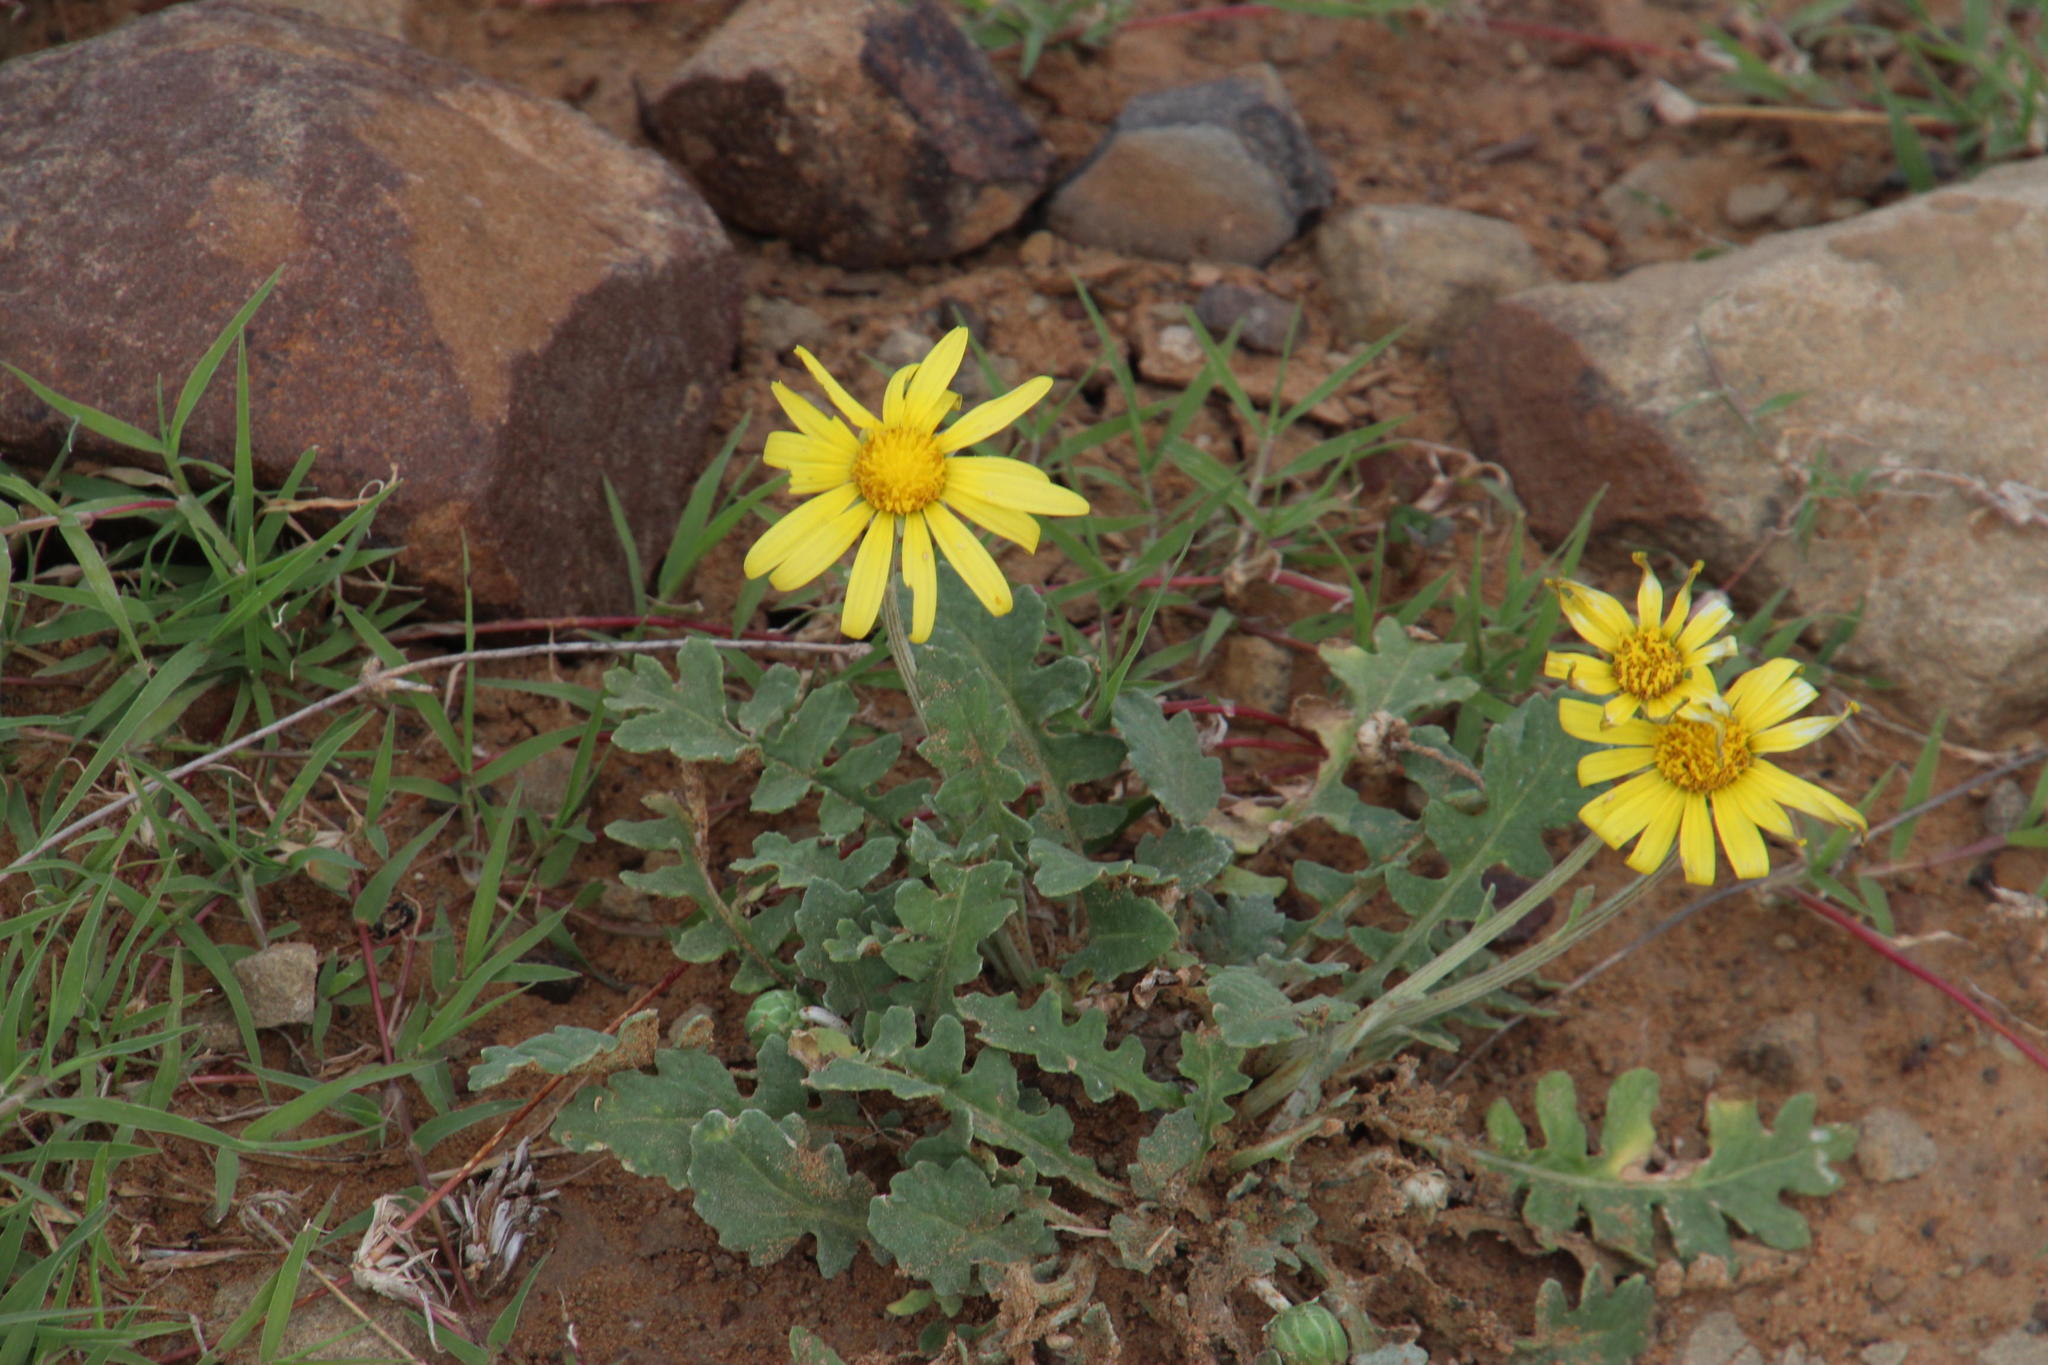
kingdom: Plantae
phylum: Tracheophyta
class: Magnoliopsida
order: Asterales
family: Asteraceae
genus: Arctotheca
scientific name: Arctotheca calendula
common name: Capeweed
